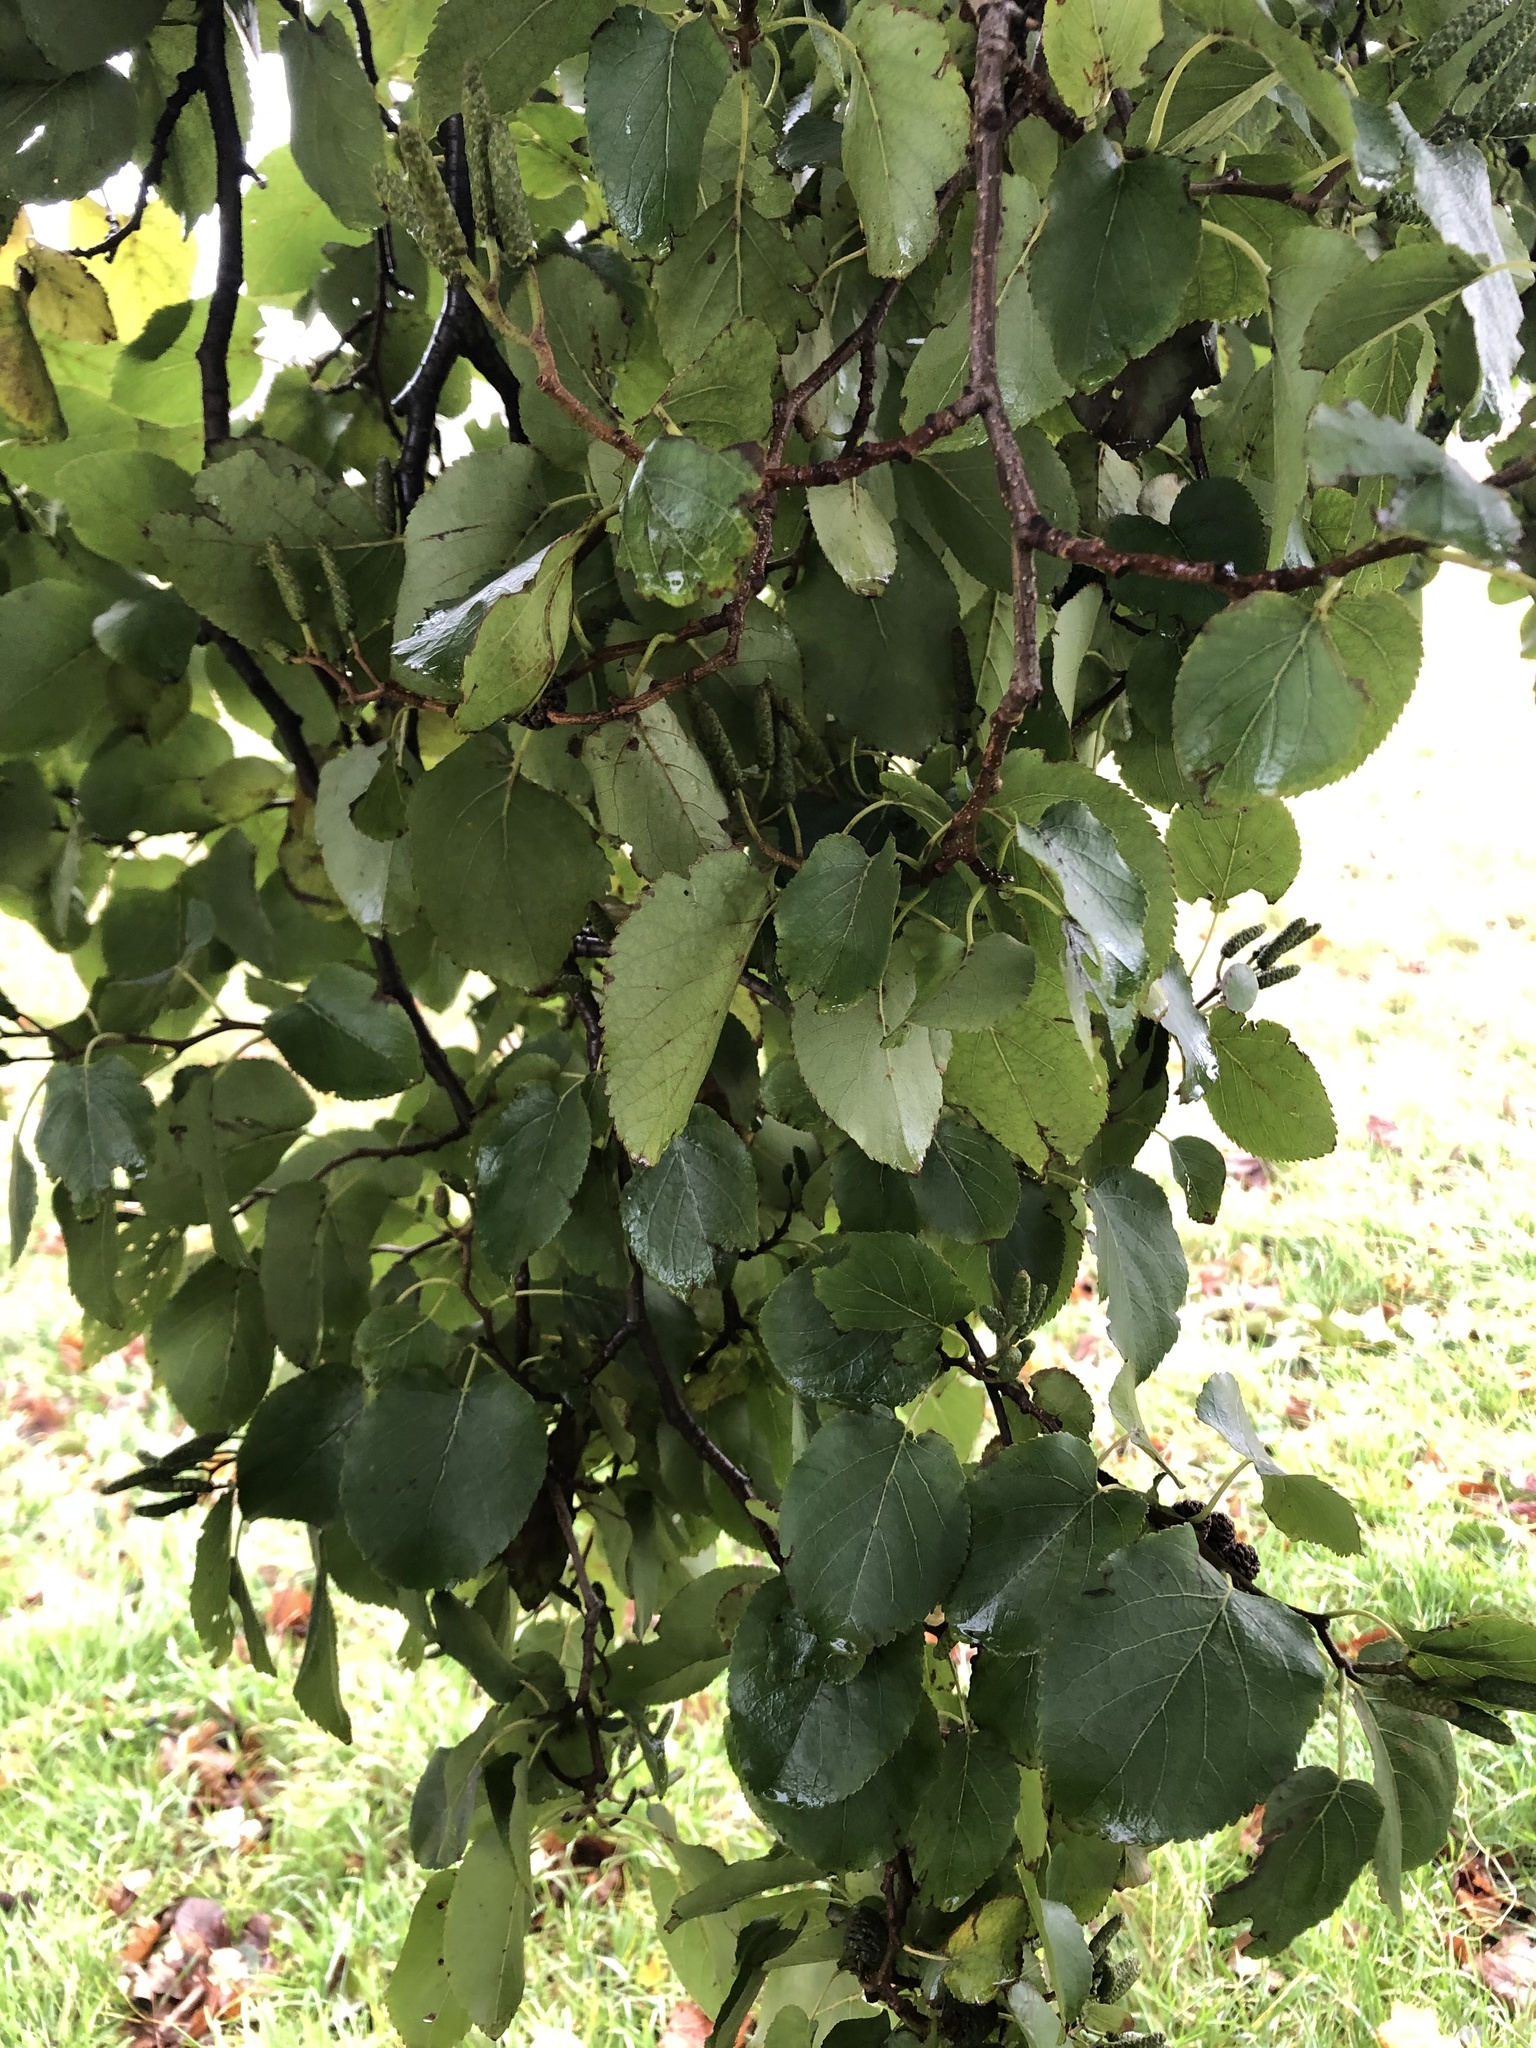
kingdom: Plantae
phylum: Tracheophyta
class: Magnoliopsida
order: Fagales
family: Betulaceae
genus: Alnus
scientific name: Alnus cordata
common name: Italian alder
